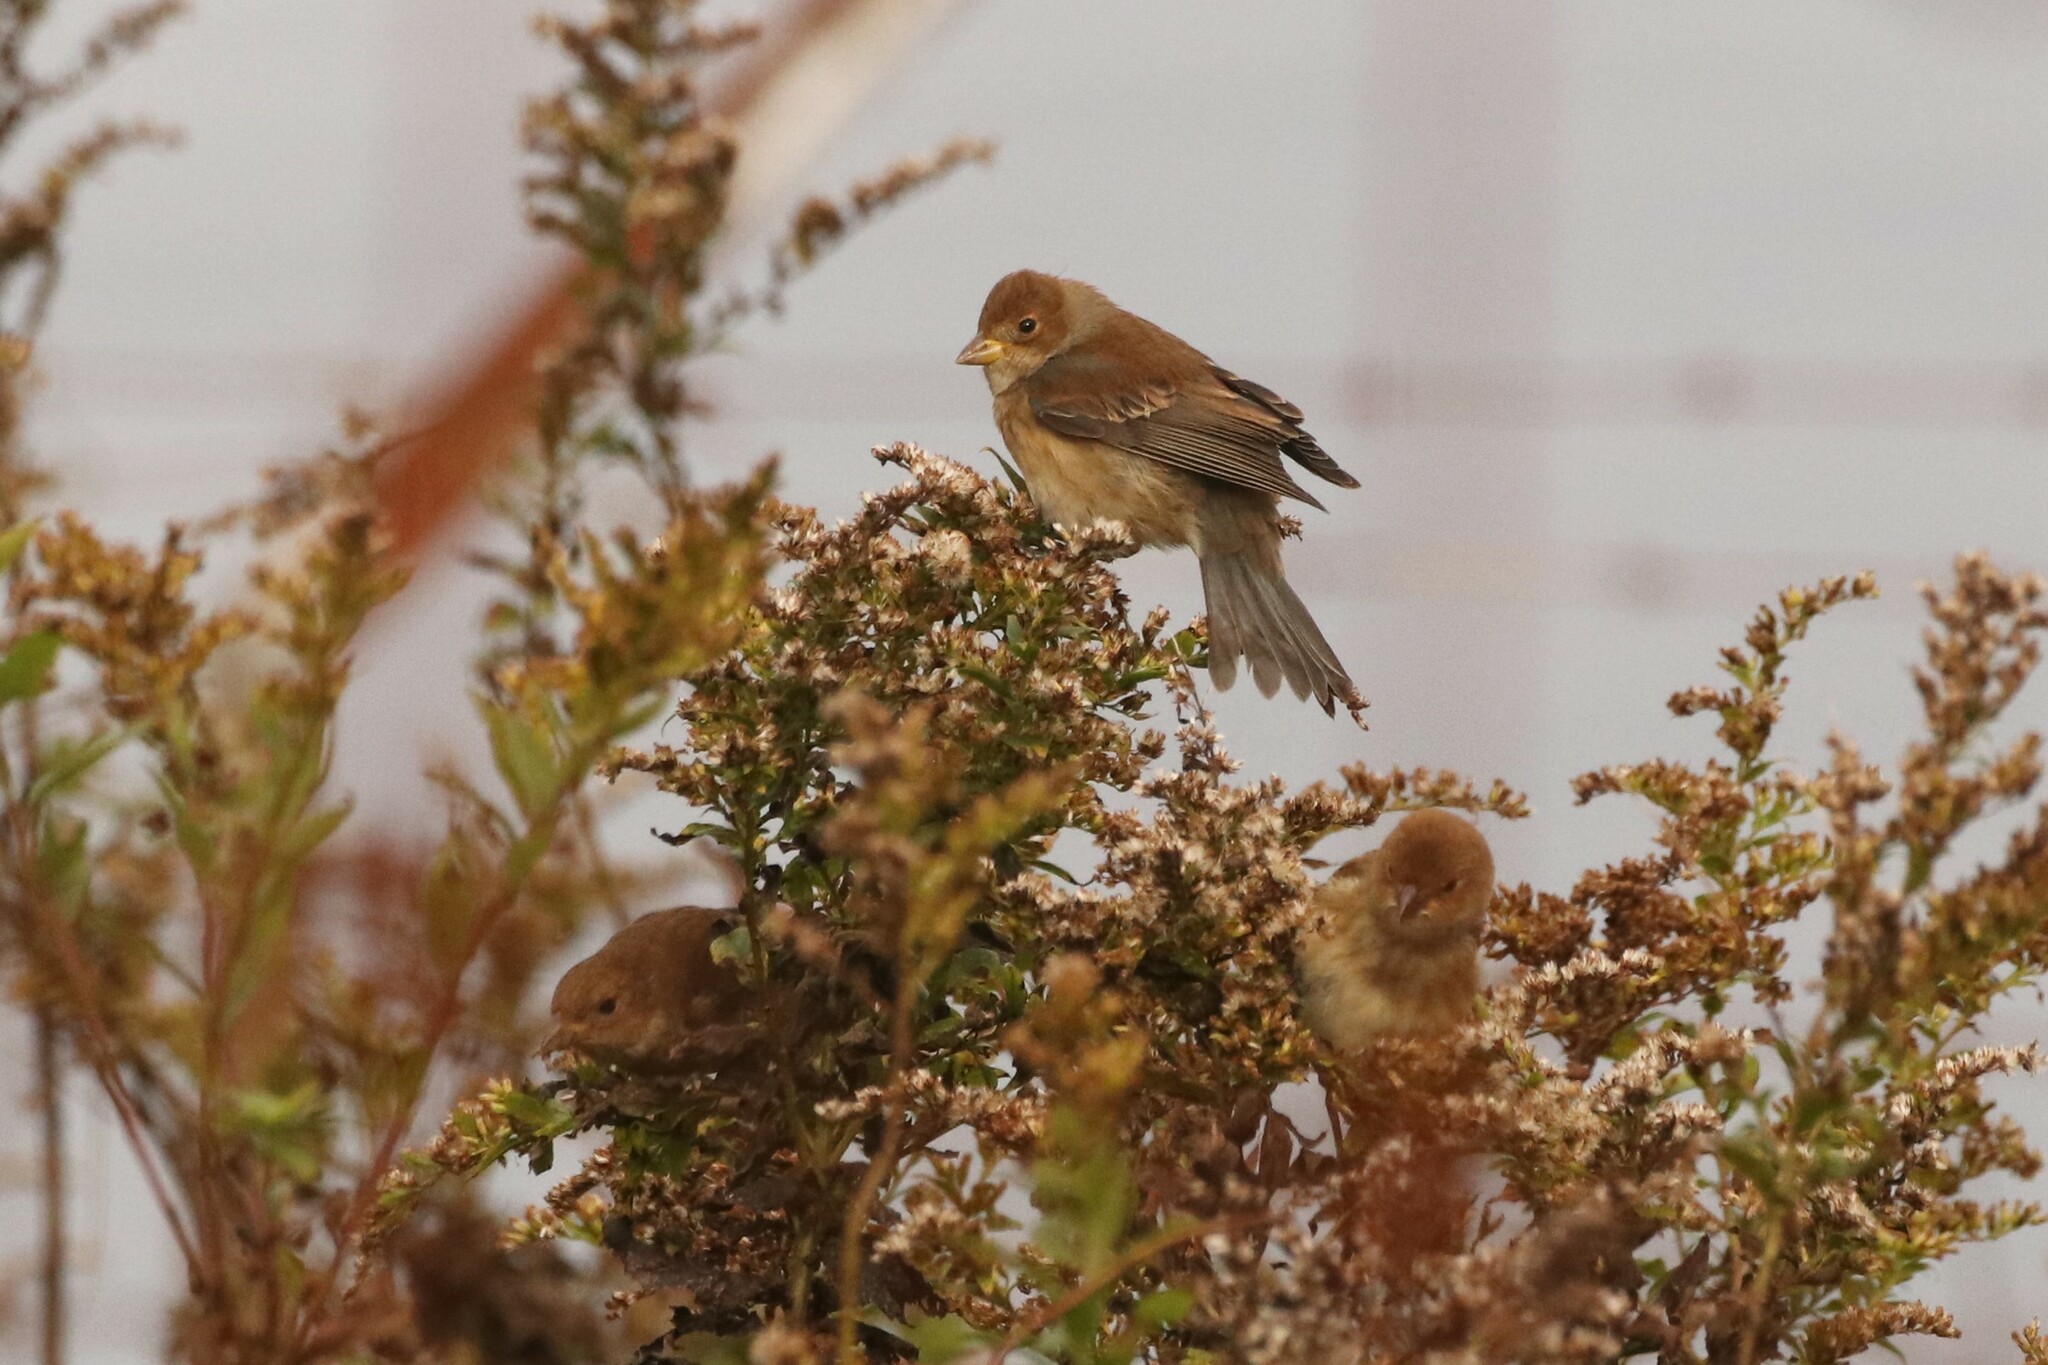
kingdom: Animalia
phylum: Chordata
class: Aves
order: Passeriformes
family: Cardinalidae
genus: Passerina
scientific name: Passerina cyanea
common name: Indigo bunting
